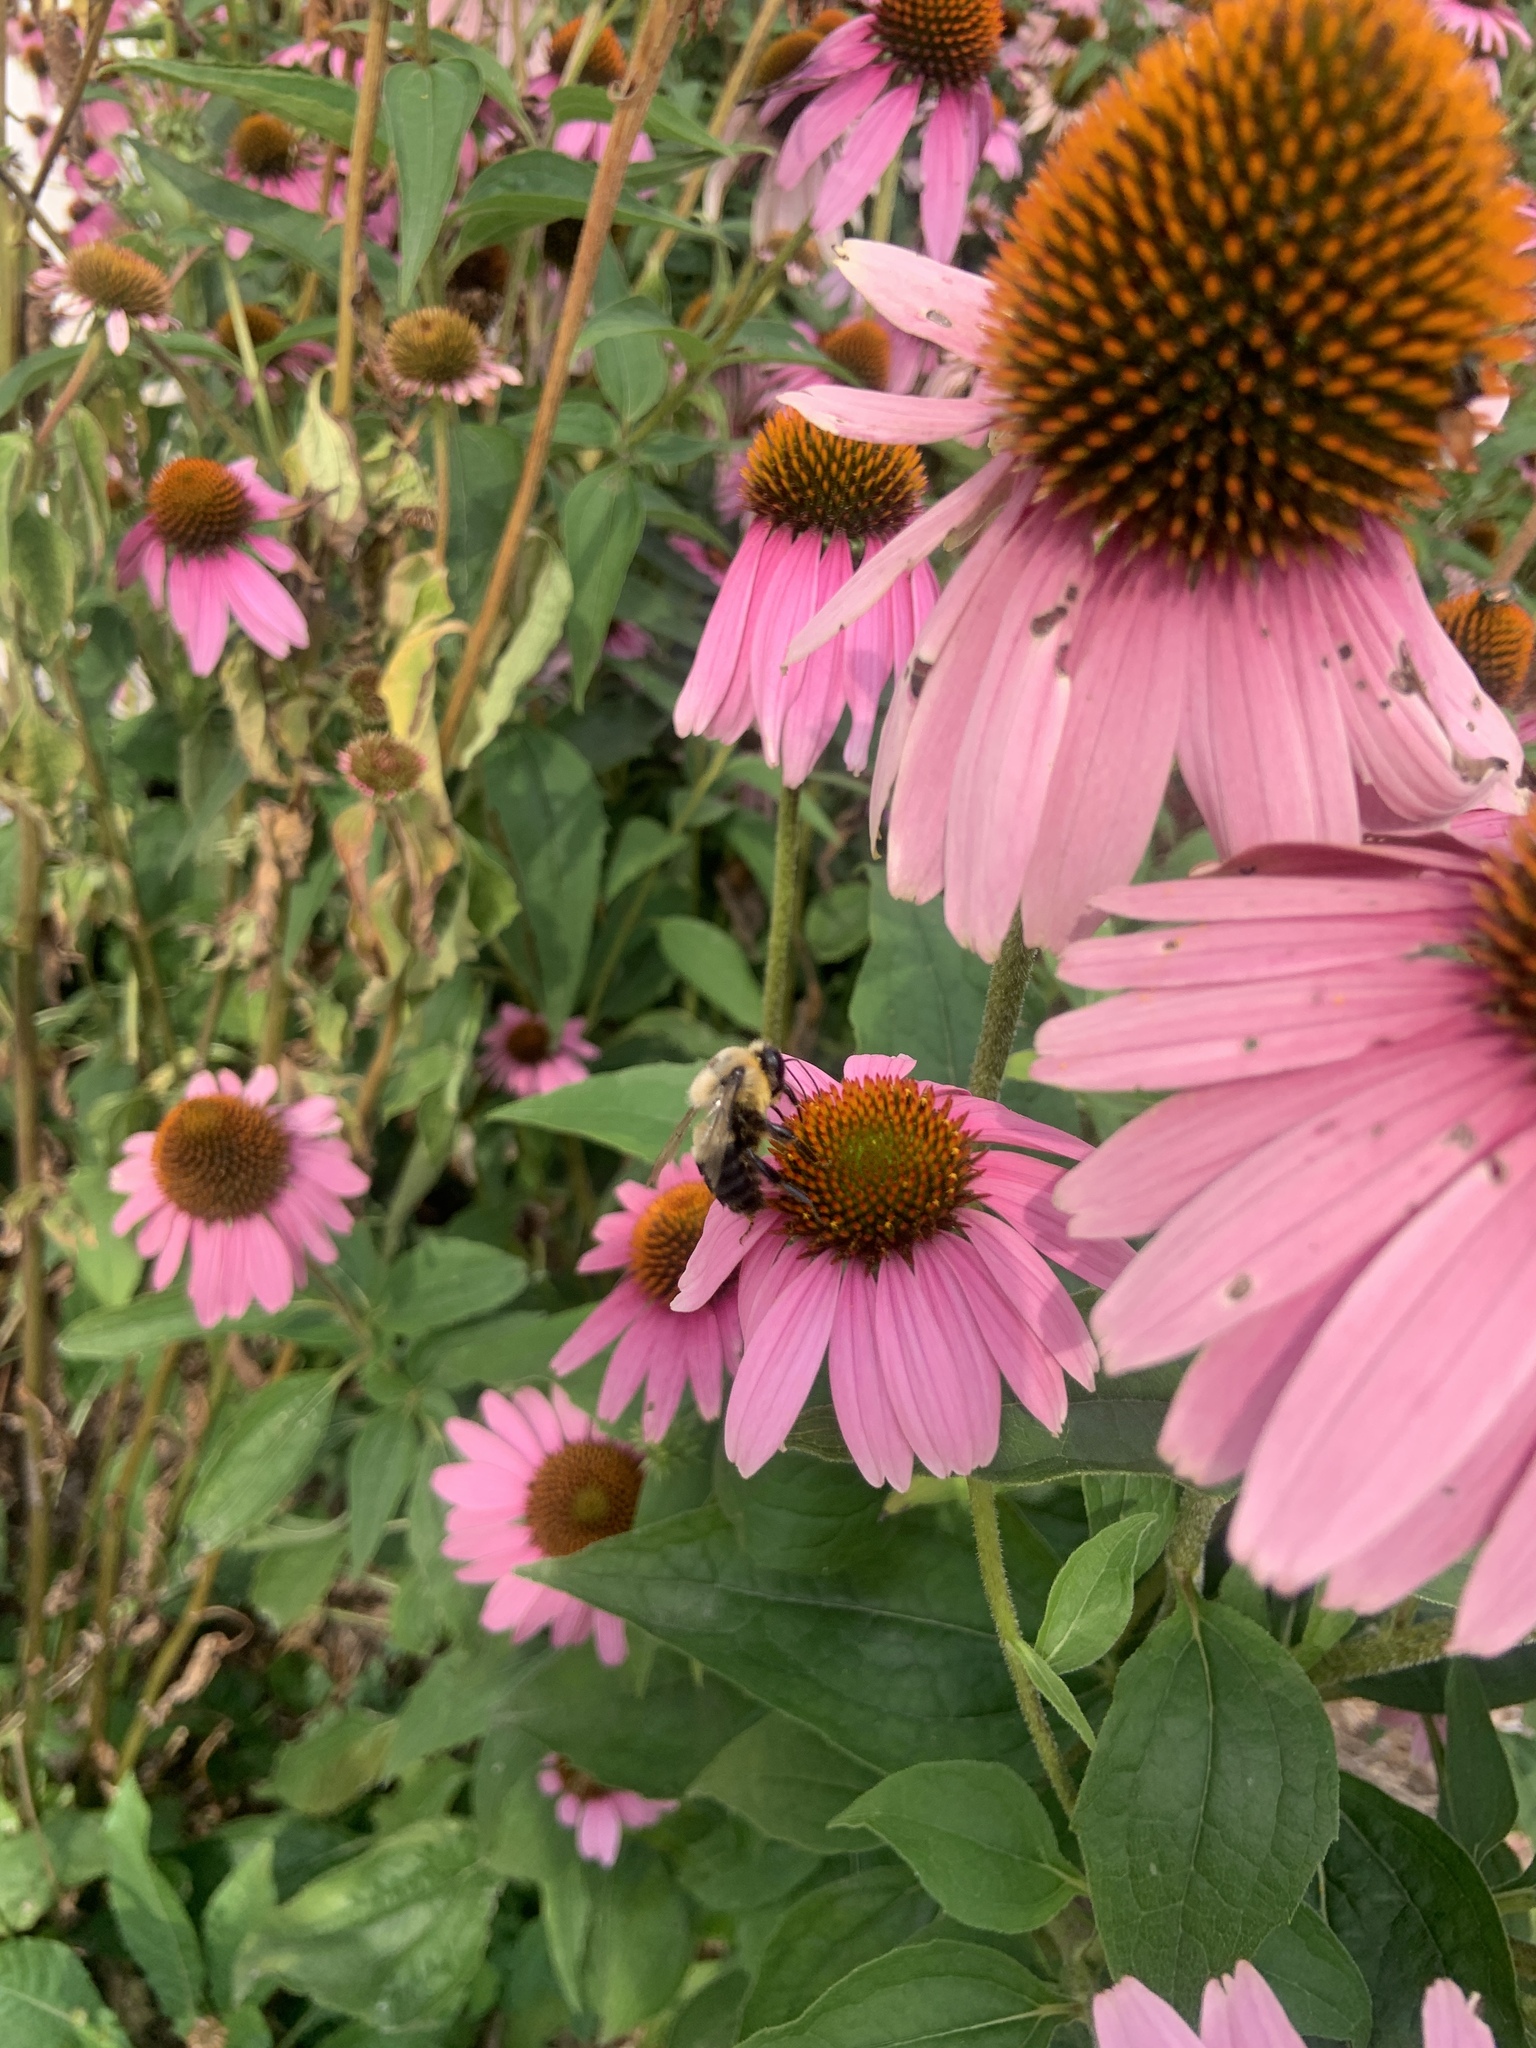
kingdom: Animalia
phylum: Arthropoda
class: Insecta
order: Hymenoptera
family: Apidae
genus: Bombus
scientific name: Bombus griseocollis
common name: Brown-belted bumble bee
